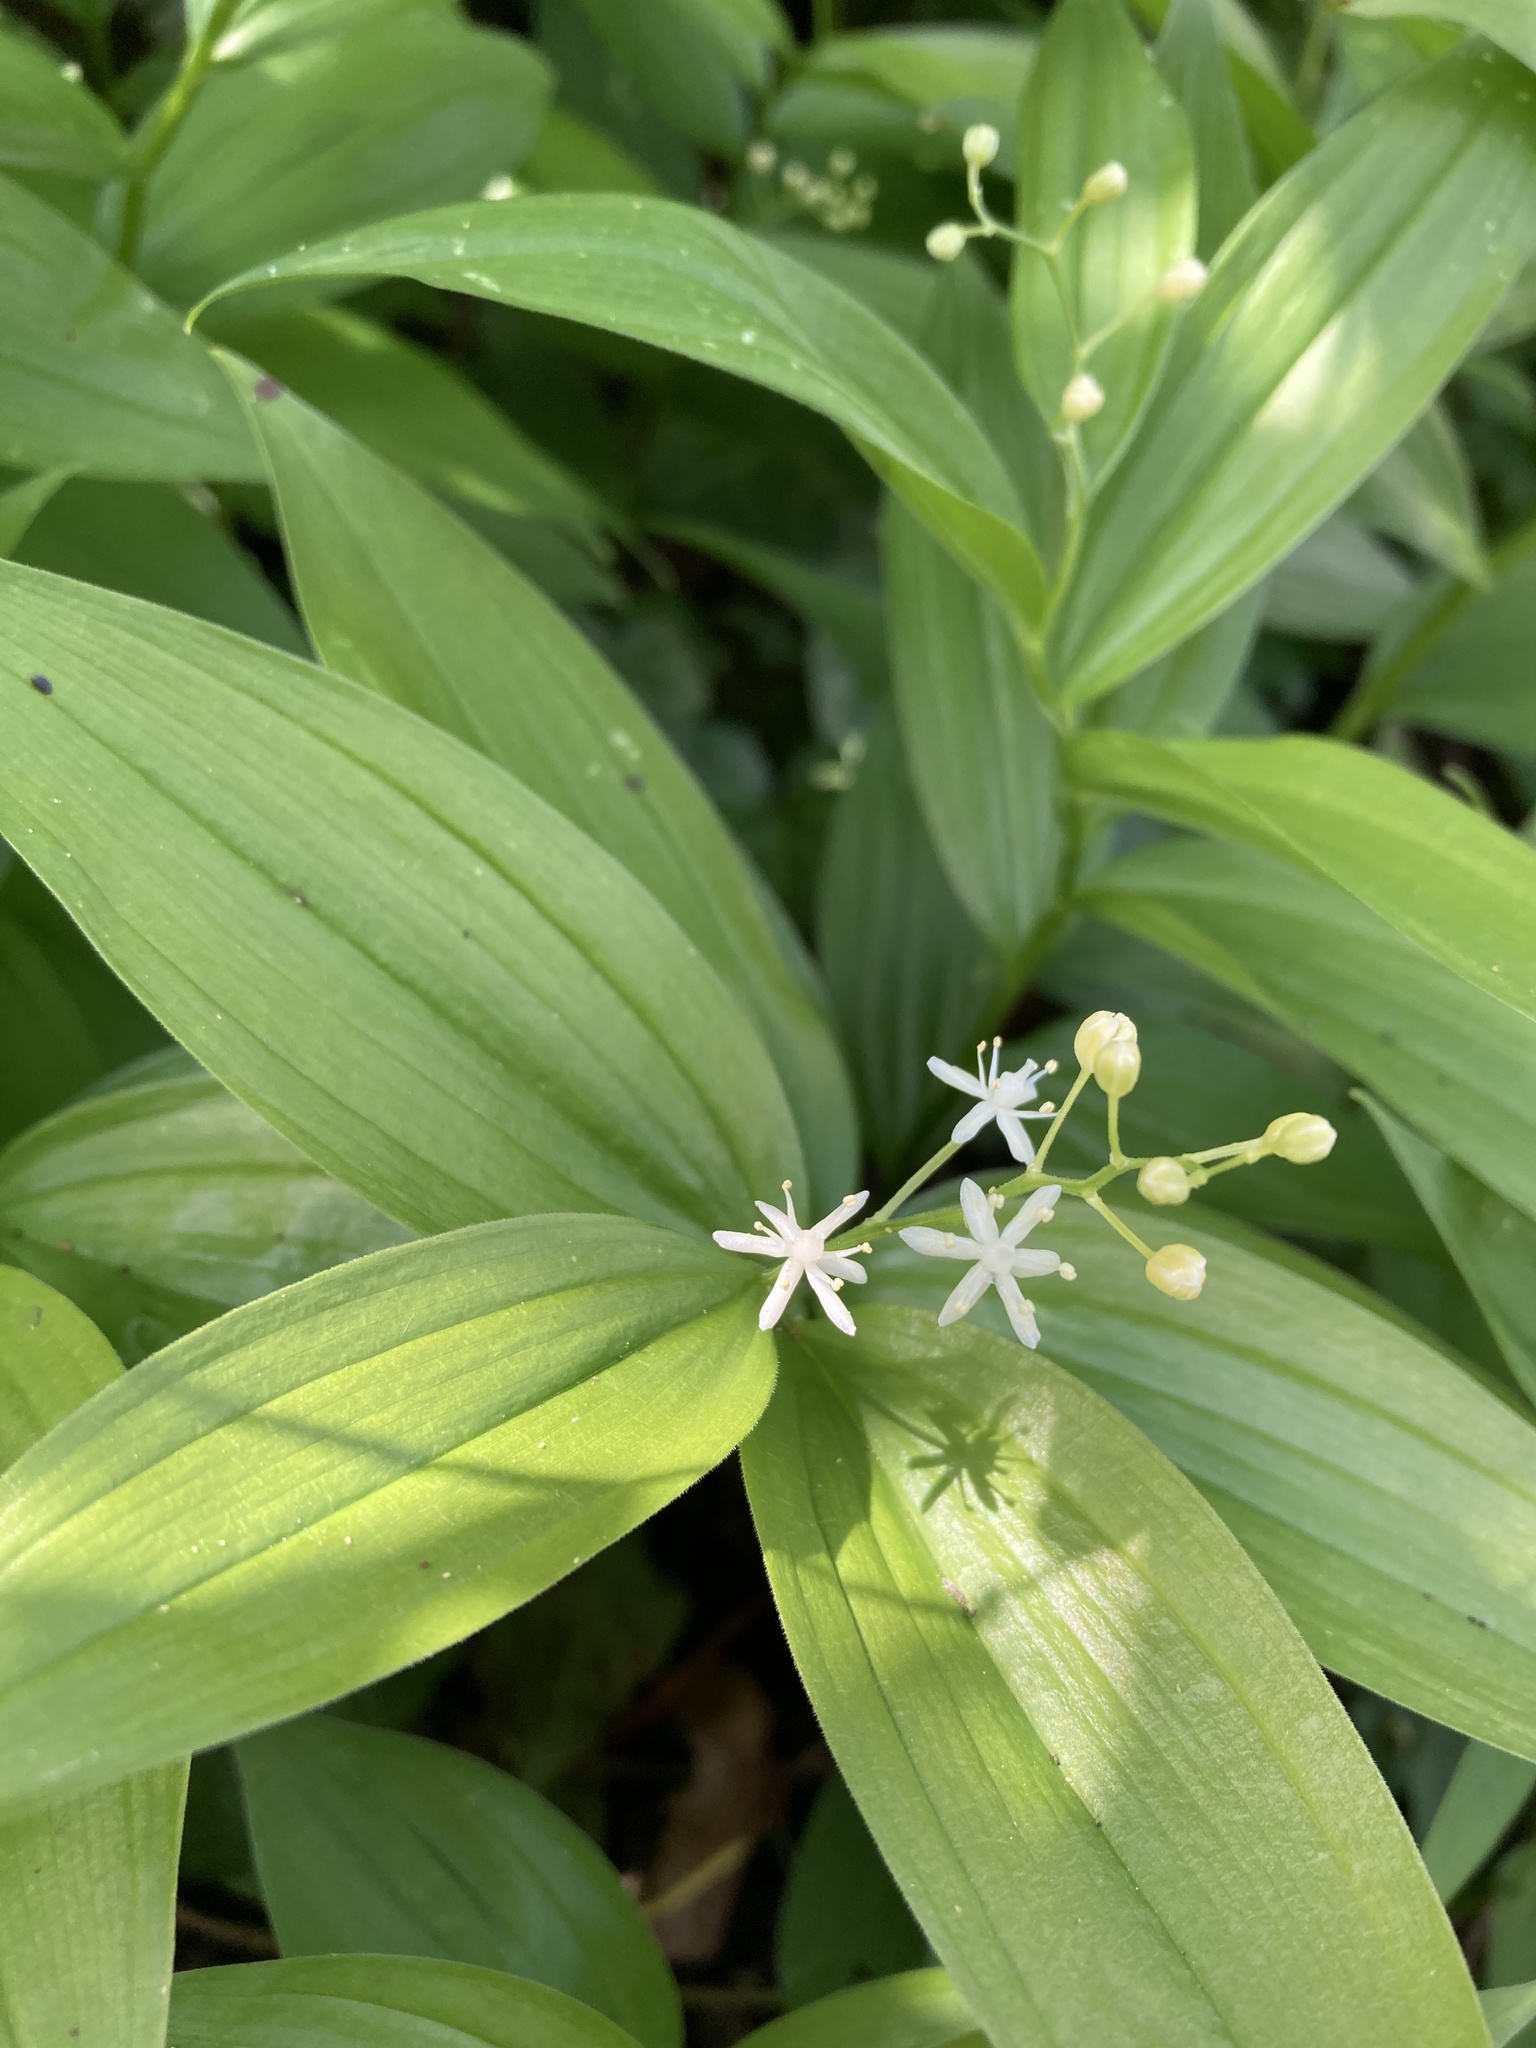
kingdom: Plantae
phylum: Tracheophyta
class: Liliopsida
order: Asparagales
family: Asparagaceae
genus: Maianthemum
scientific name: Maianthemum stellatum
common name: Little false solomon's seal
